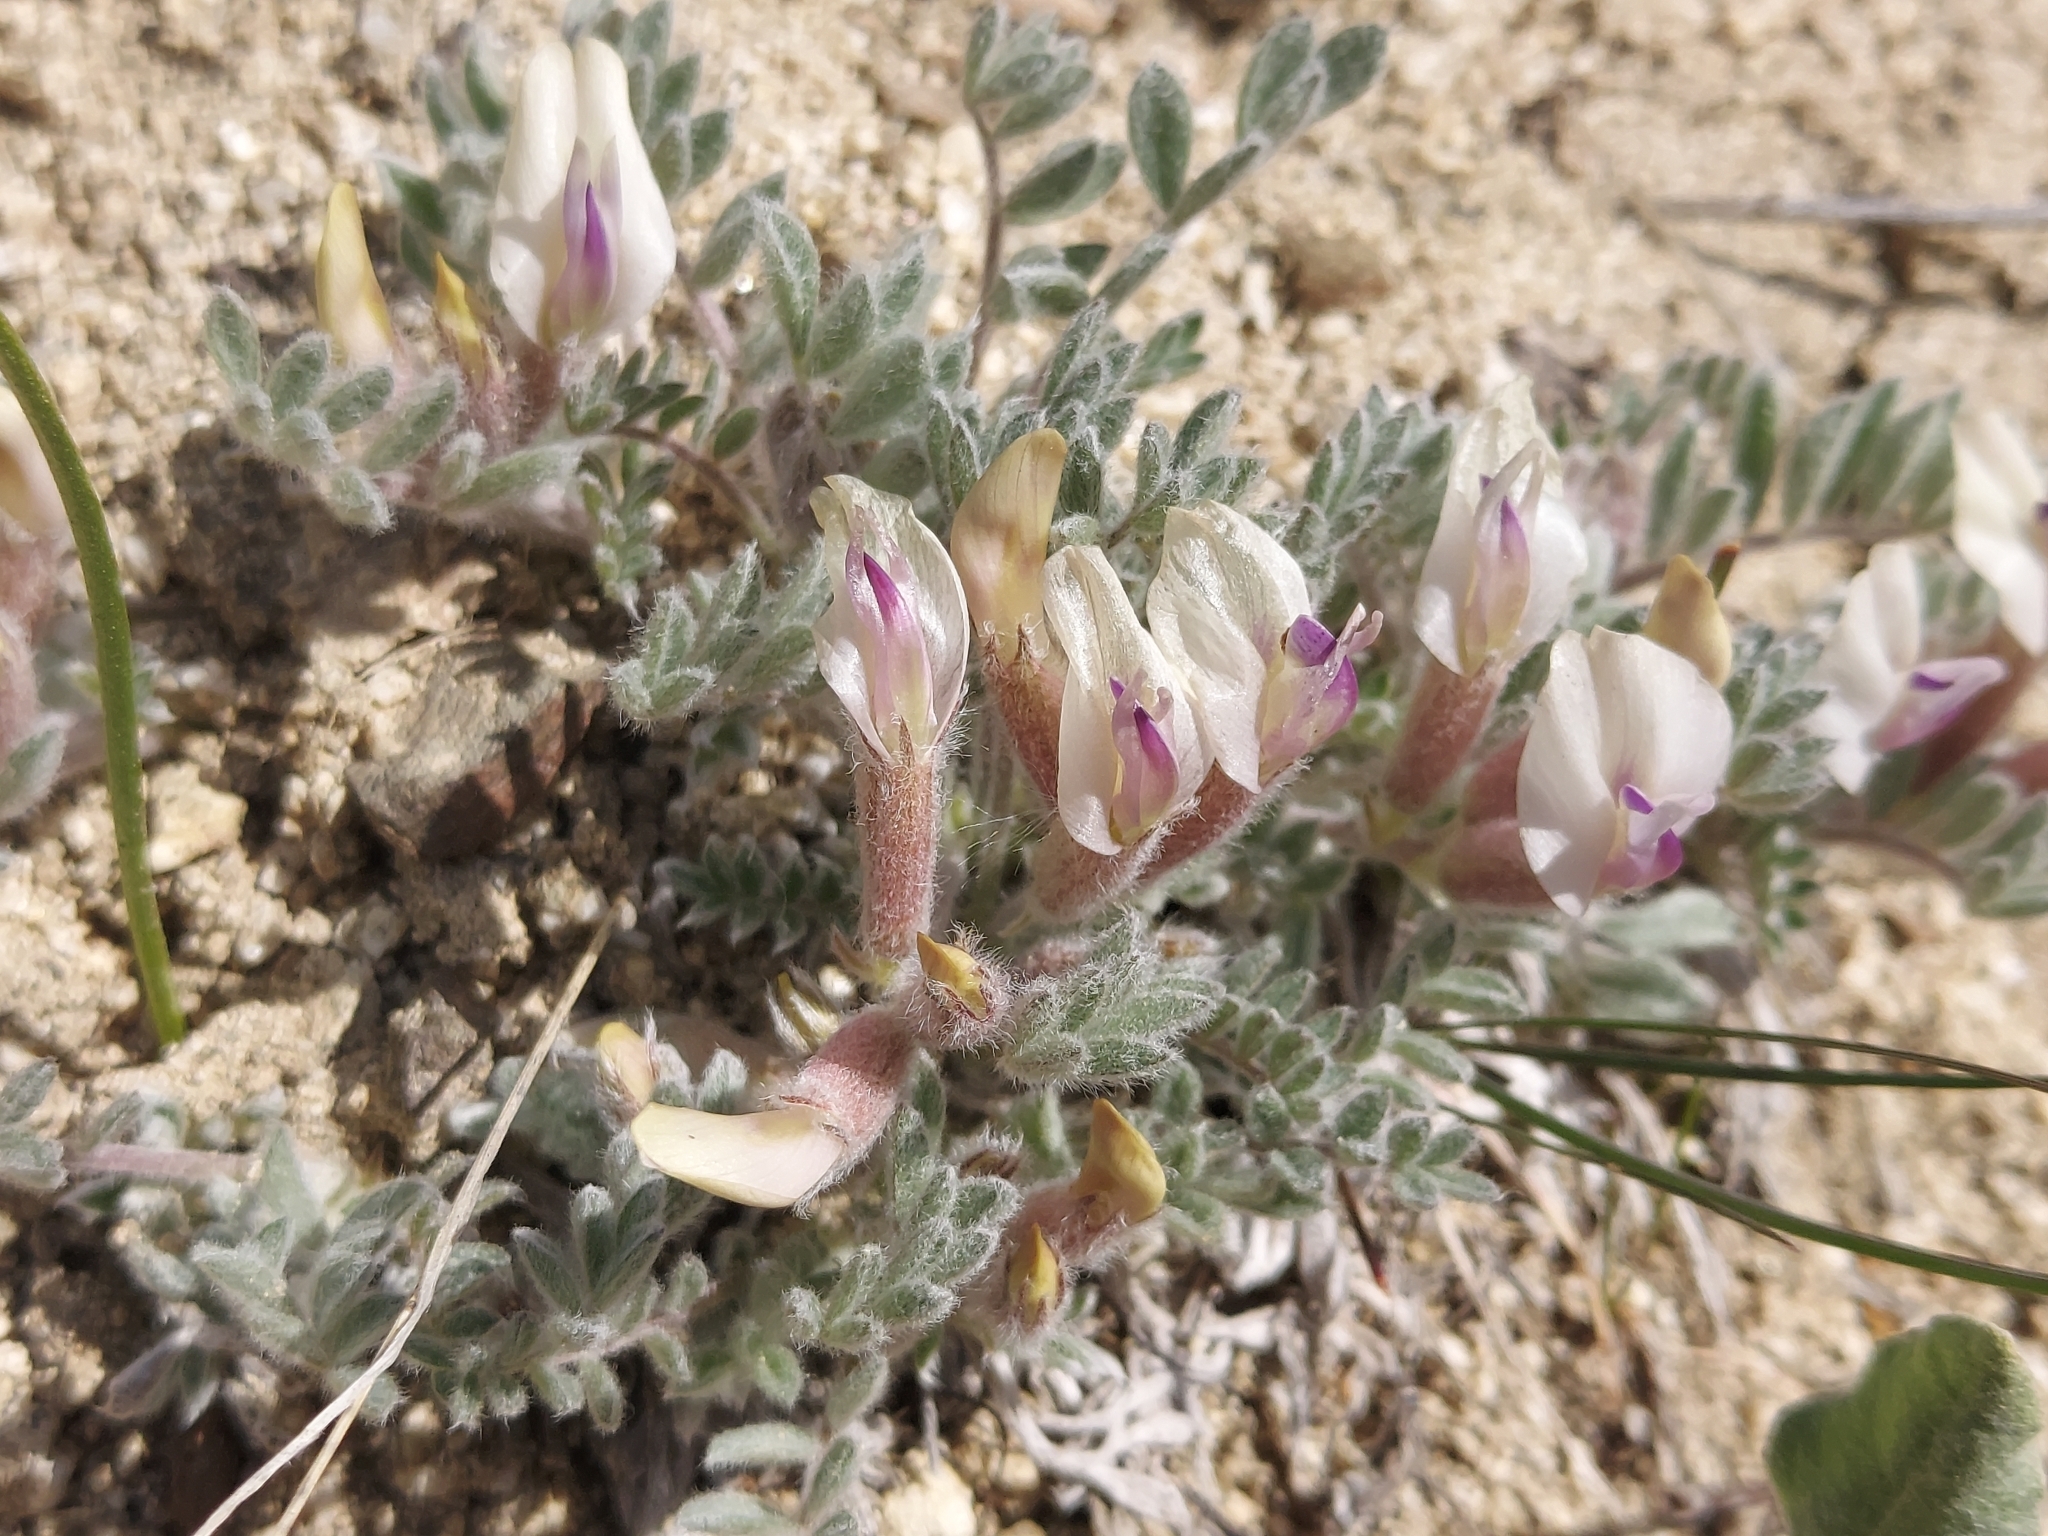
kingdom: Plantae
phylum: Tracheophyta
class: Magnoliopsida
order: Fabales
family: Fabaceae
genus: Astragalus
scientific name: Astragalus purshii
